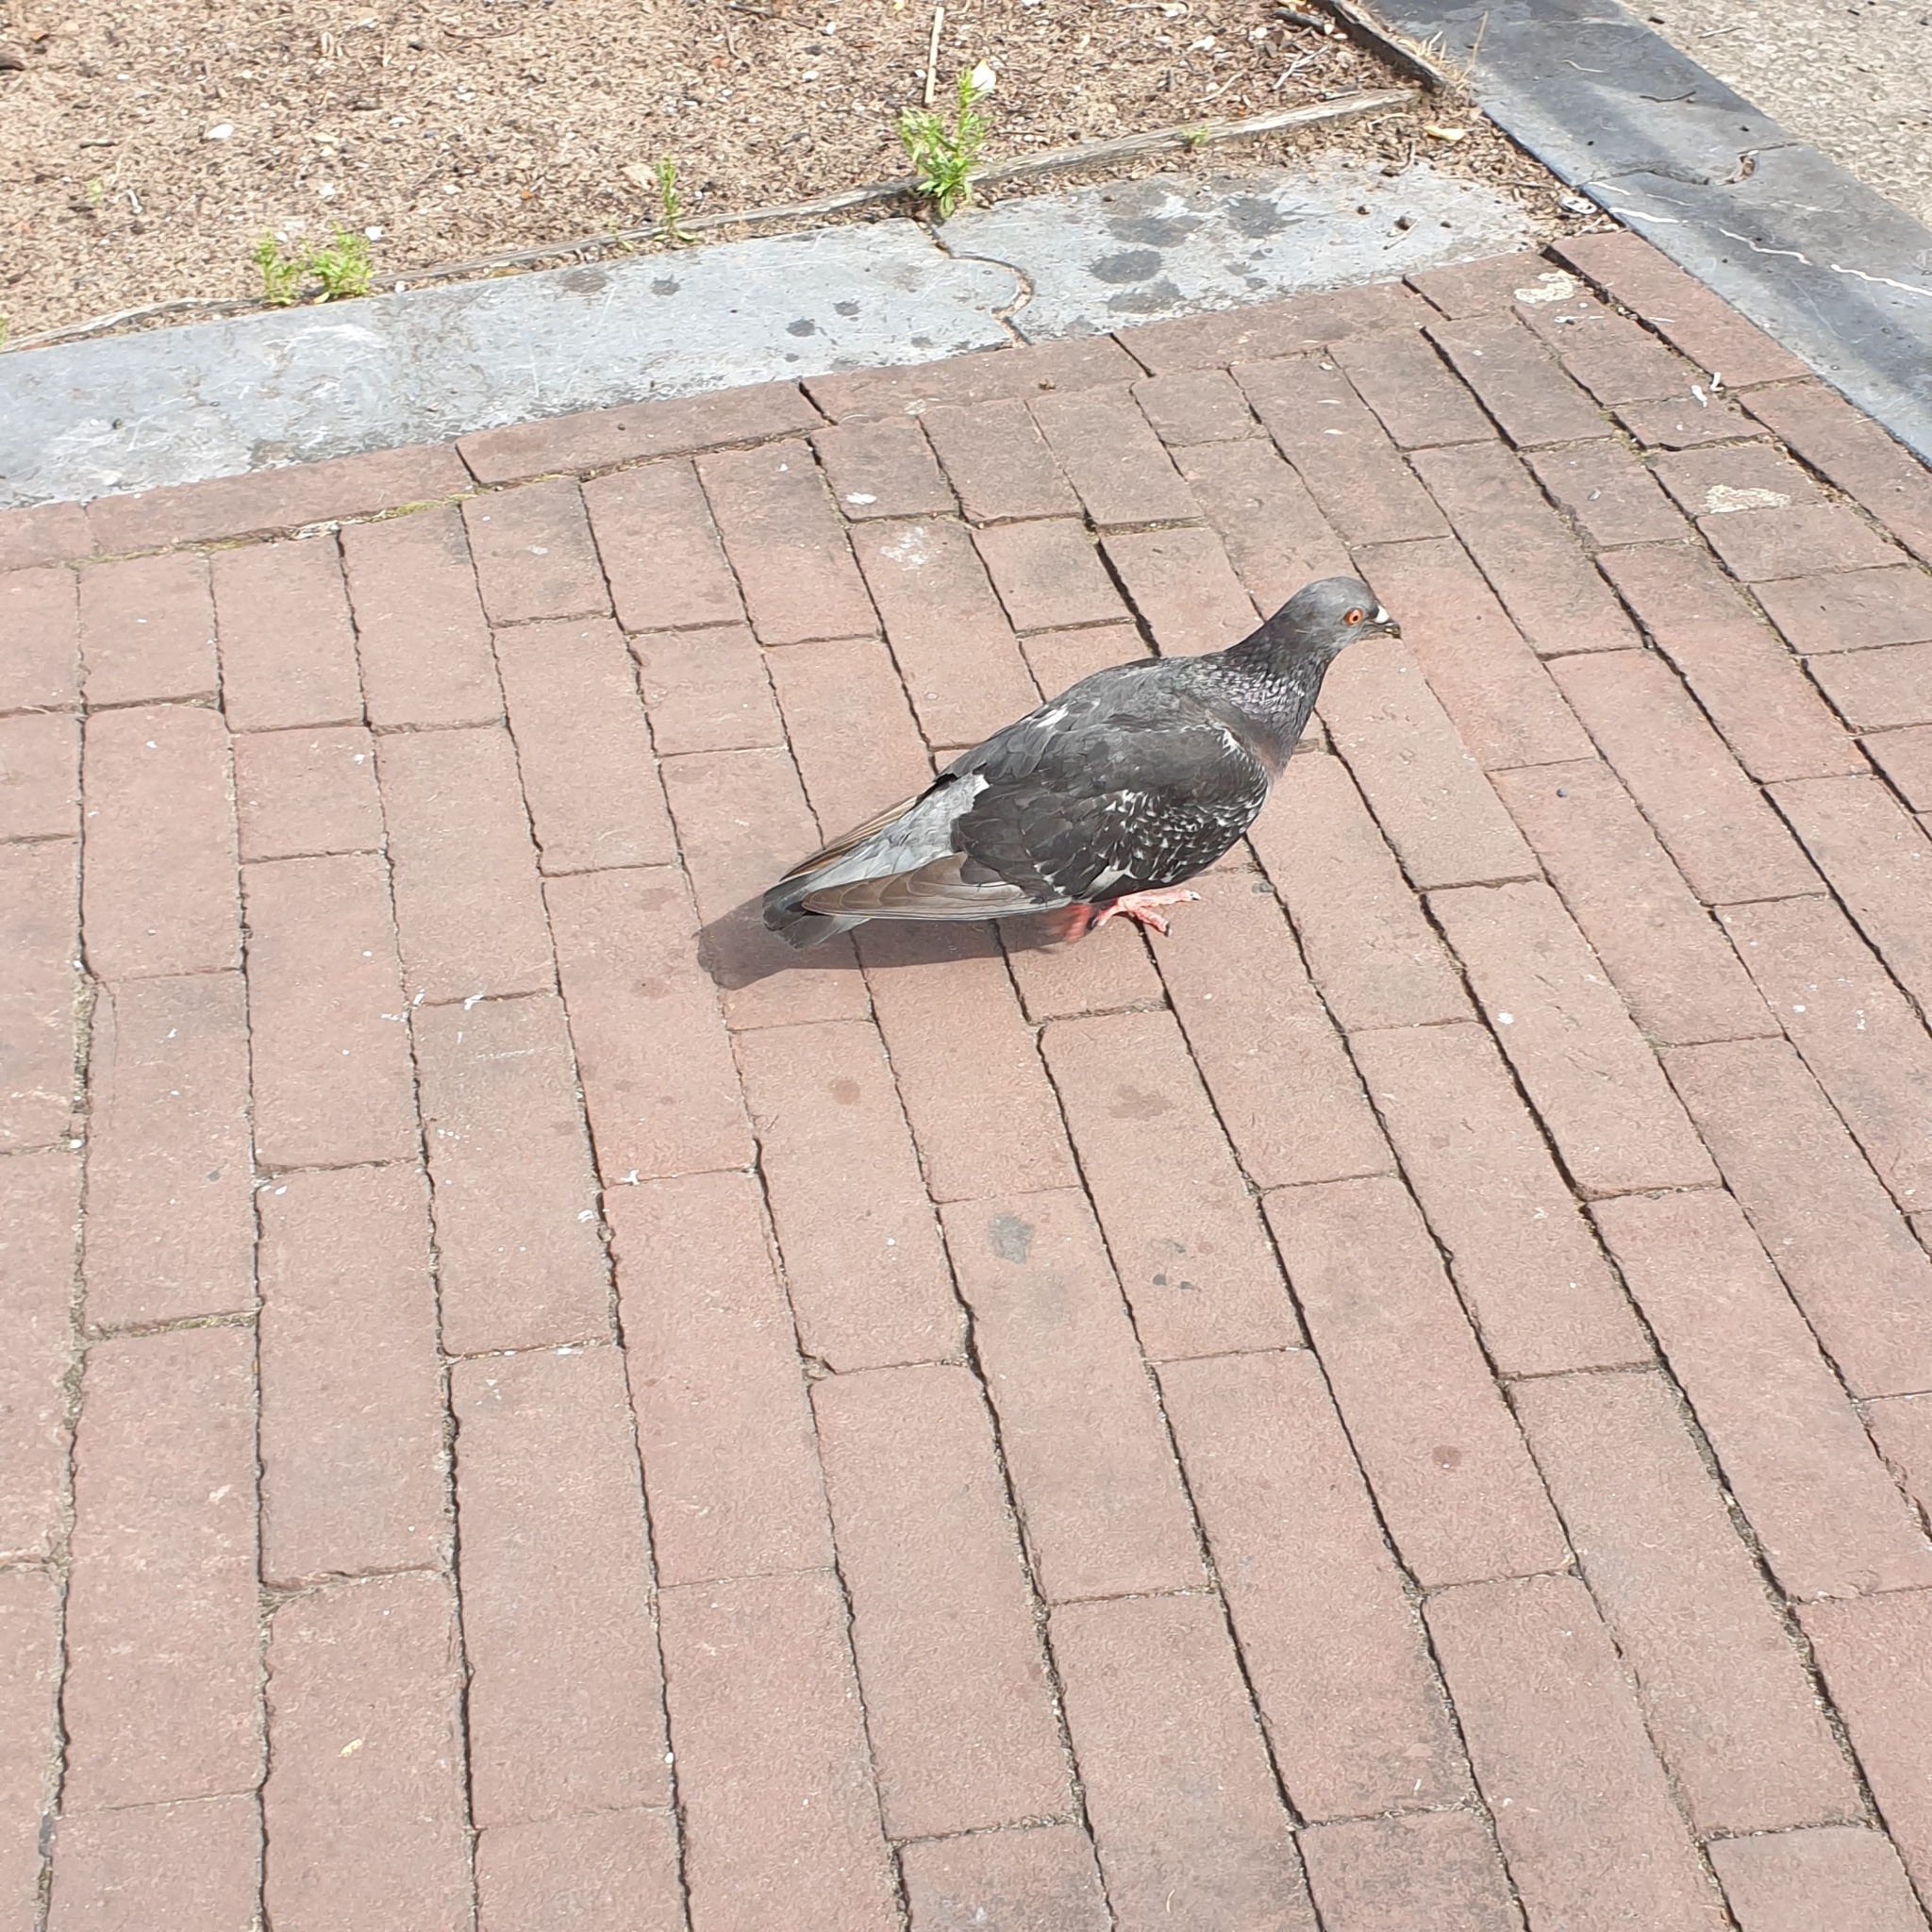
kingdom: Animalia
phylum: Chordata
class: Aves
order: Columbiformes
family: Columbidae
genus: Columba
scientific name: Columba livia
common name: Rock pigeon
